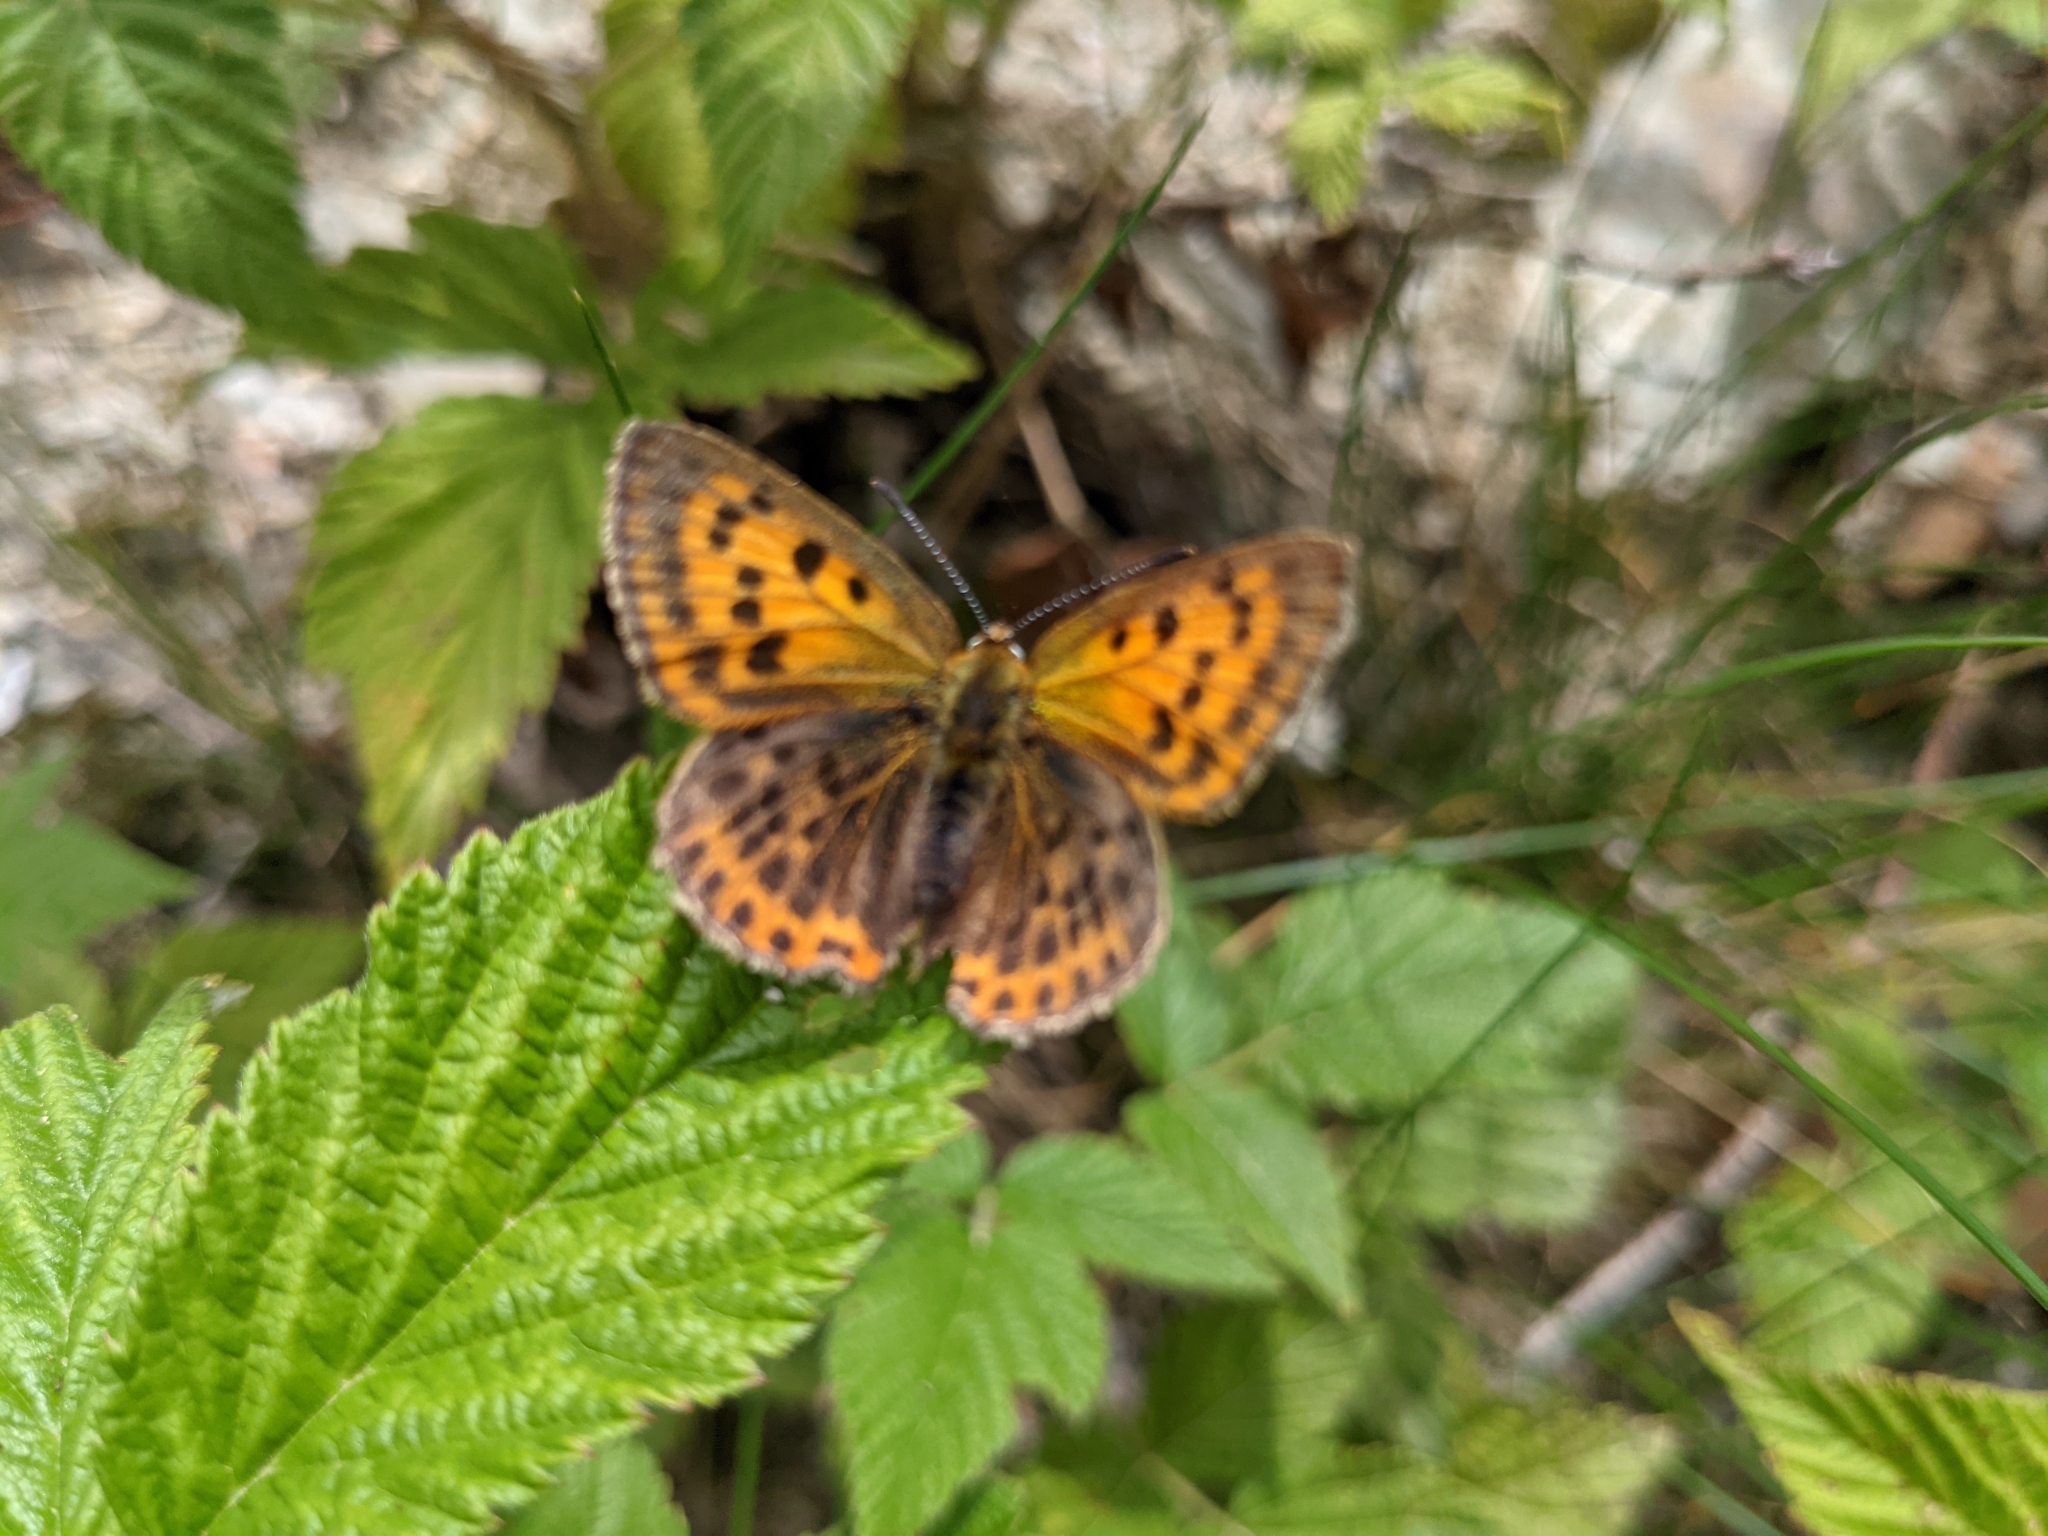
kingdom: Animalia
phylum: Arthropoda
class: Insecta
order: Lepidoptera
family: Lycaenidae
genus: Lycaena
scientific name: Lycaena virgaureae
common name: Scarce copper
